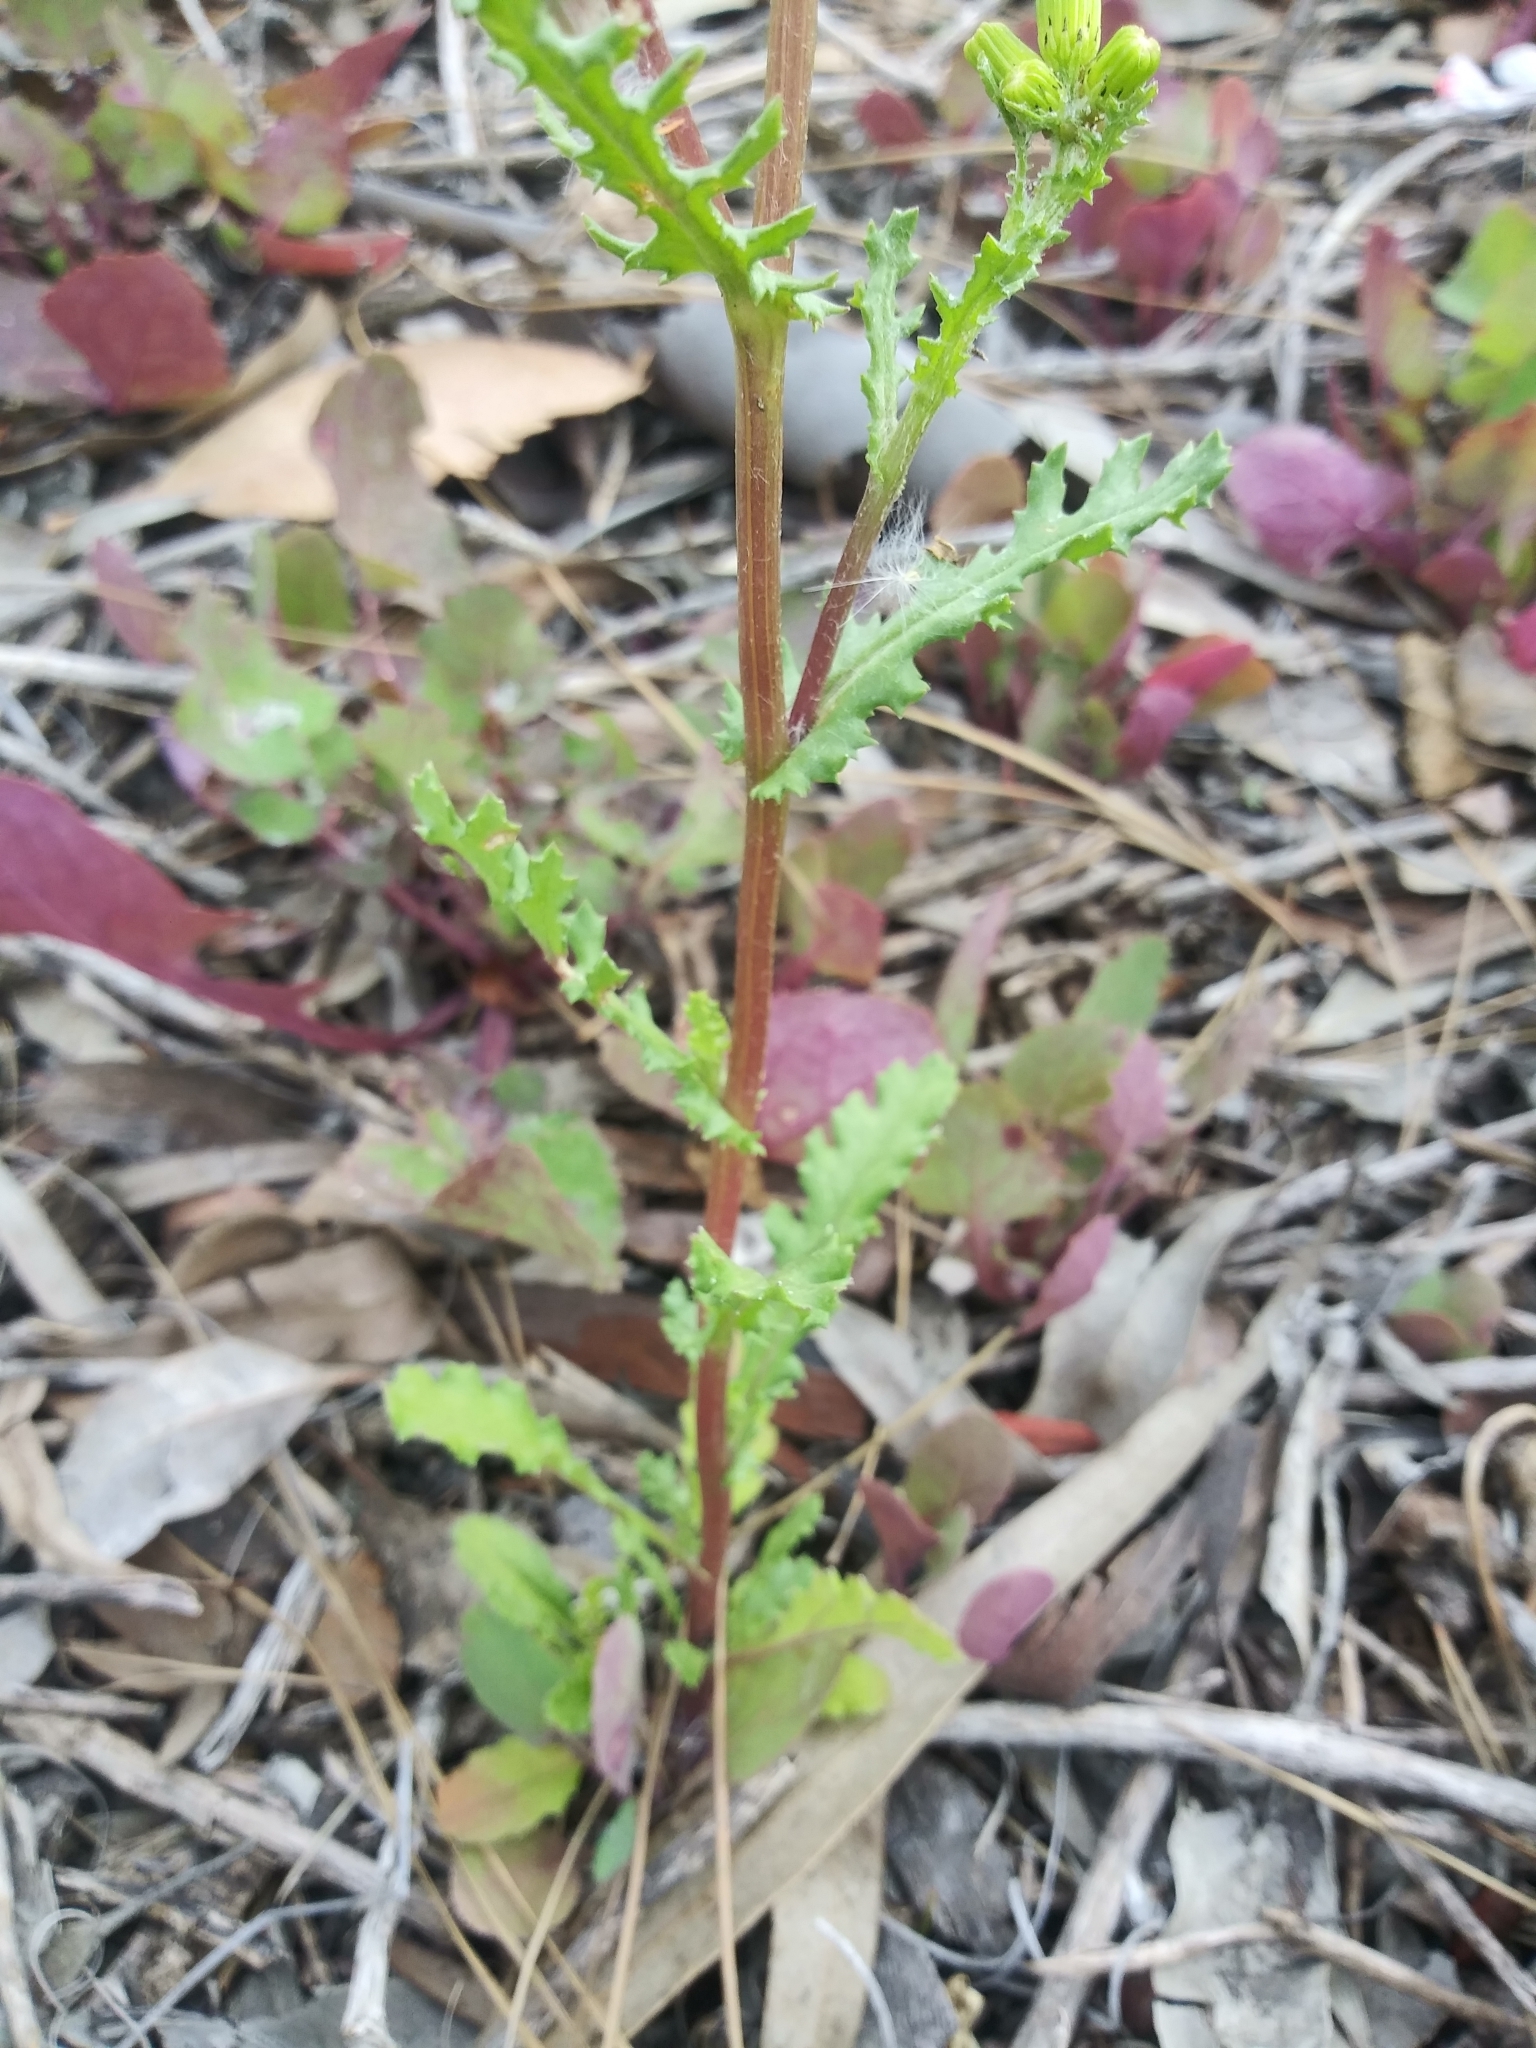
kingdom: Plantae
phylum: Tracheophyta
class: Magnoliopsida
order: Asterales
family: Asteraceae
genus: Senecio
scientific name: Senecio vulgaris
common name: Old-man-in-the-spring
